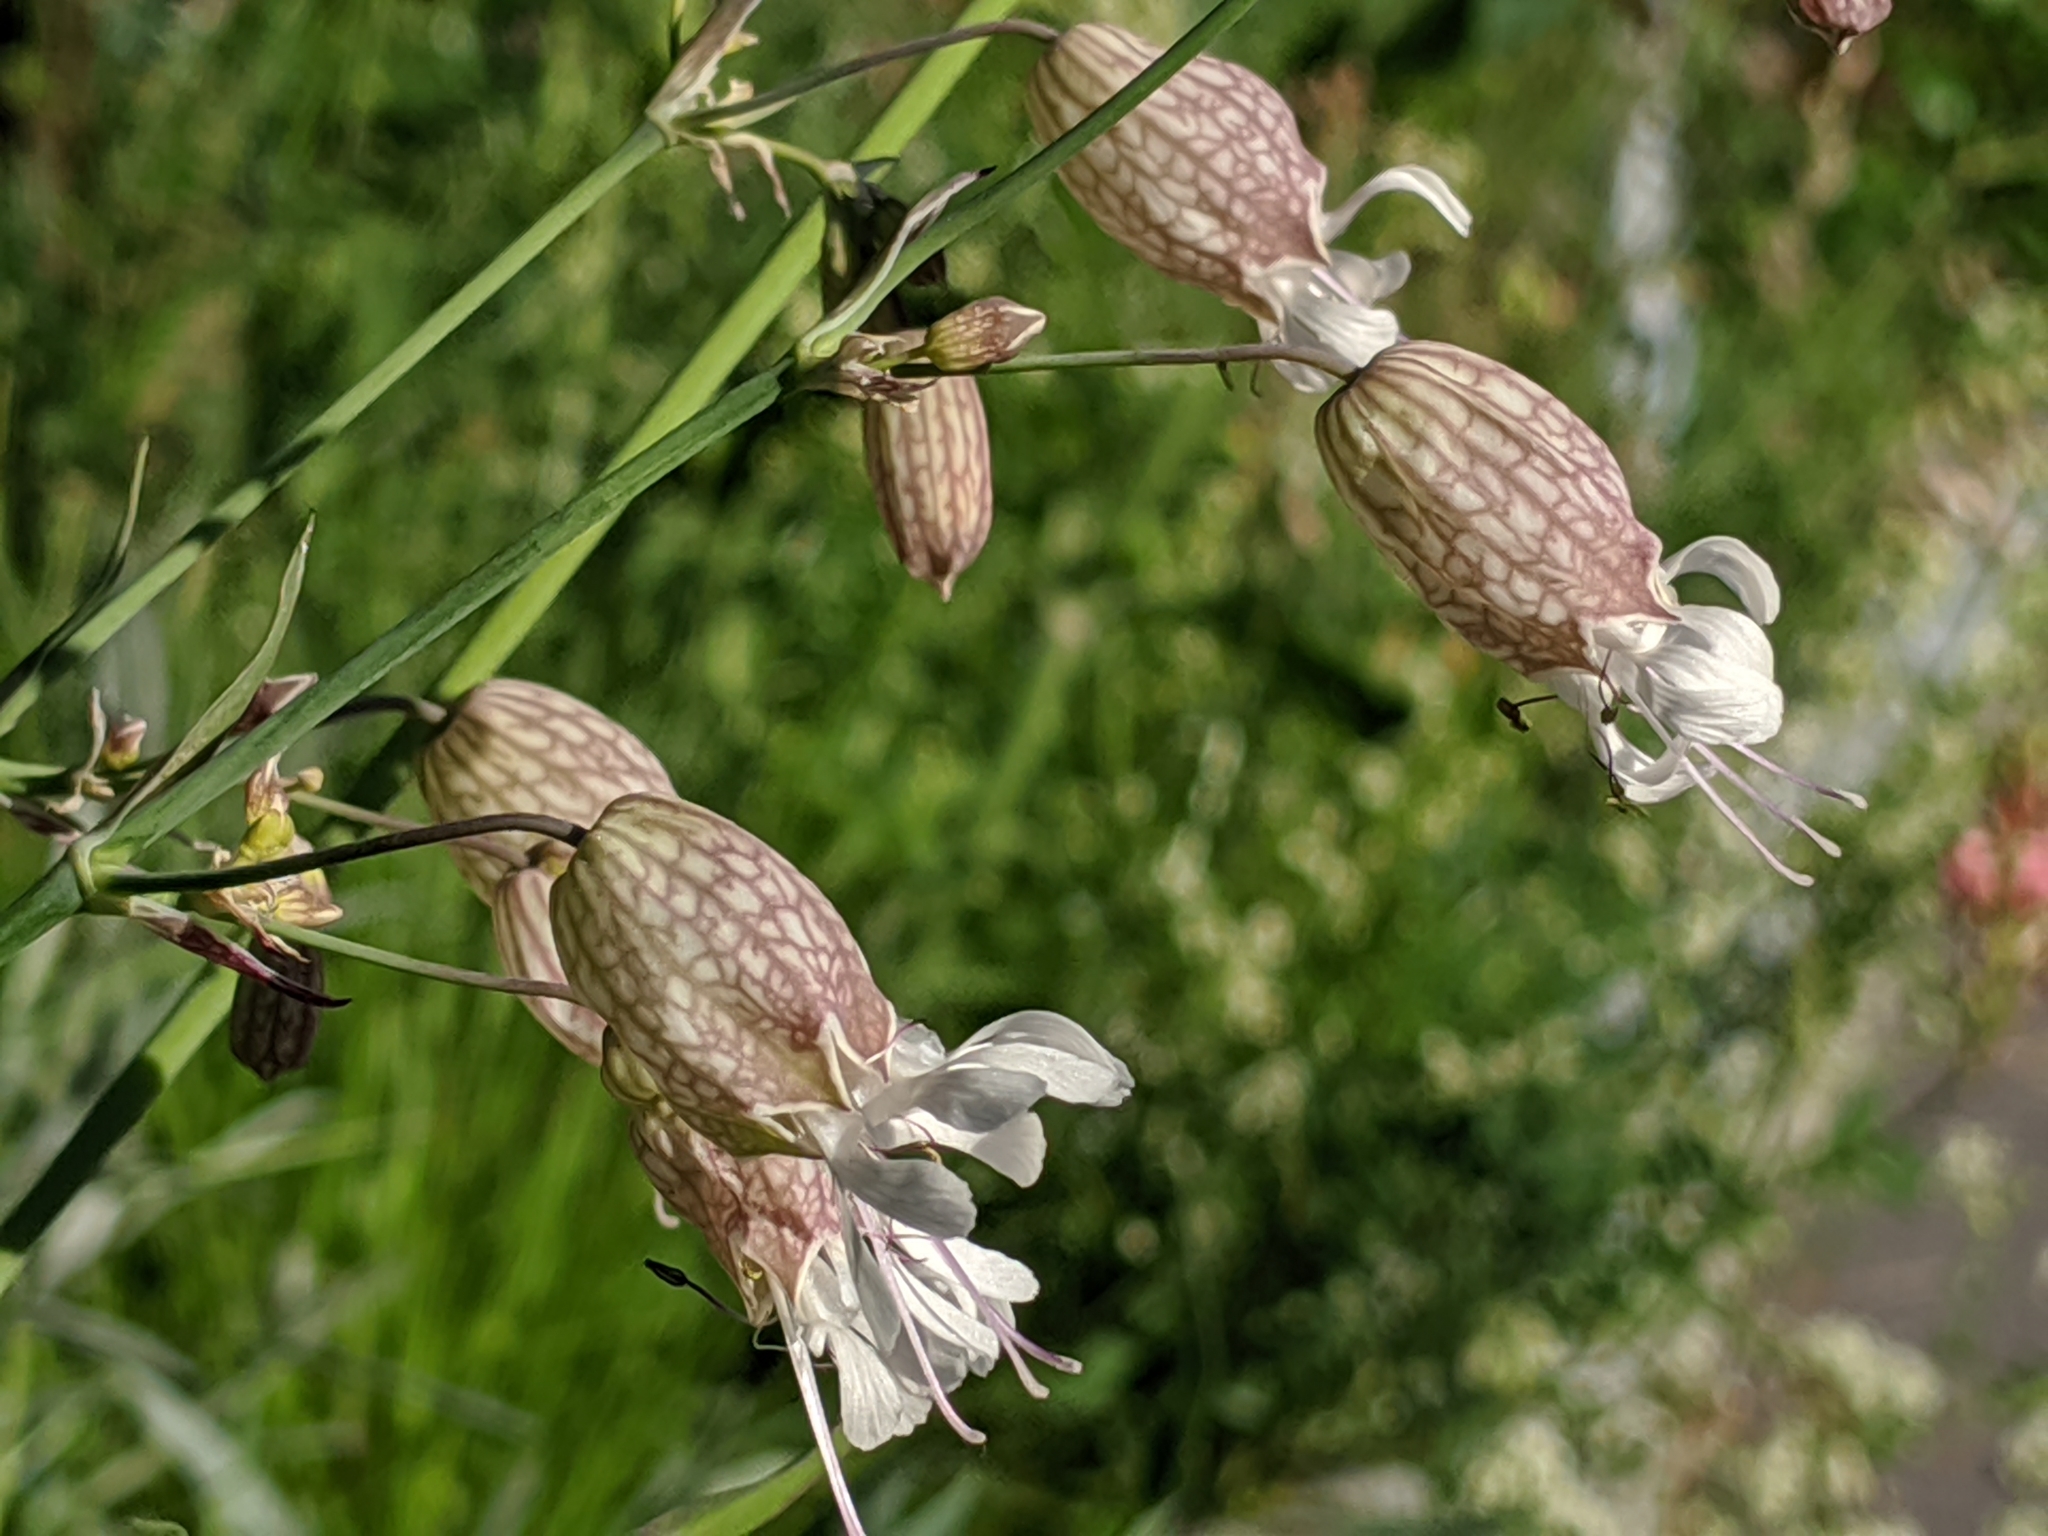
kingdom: Plantae
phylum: Tracheophyta
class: Magnoliopsida
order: Caryophyllales
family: Caryophyllaceae
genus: Silene
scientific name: Silene vulgaris
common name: Bladder campion
